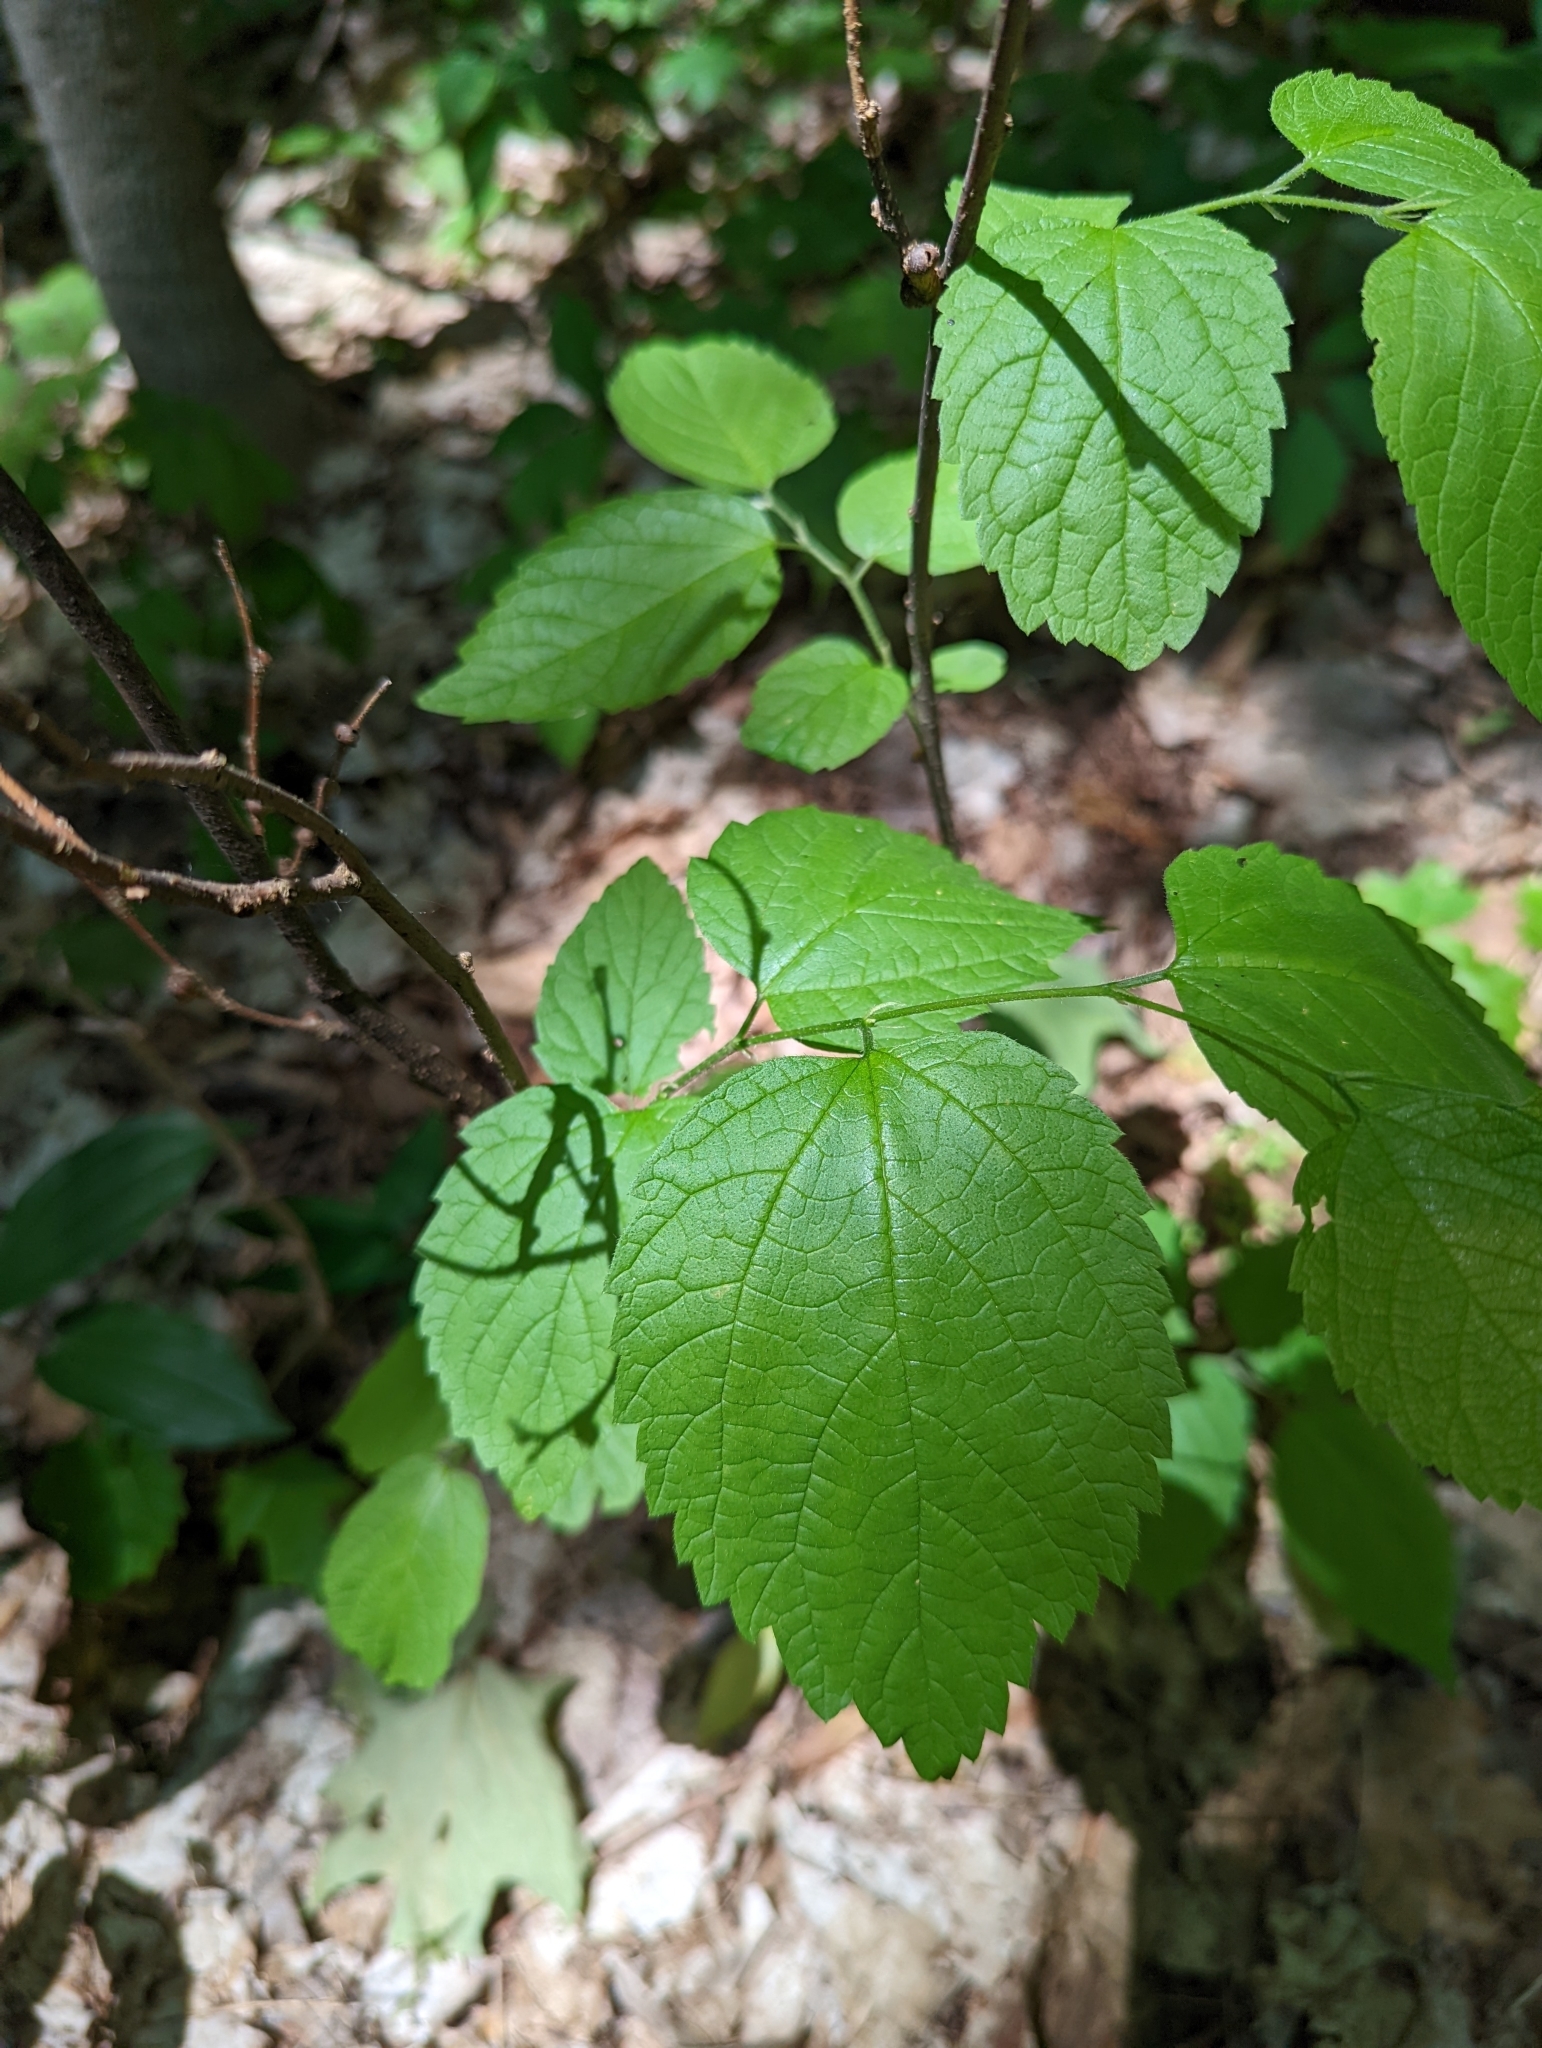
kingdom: Plantae
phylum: Tracheophyta
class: Magnoliopsida
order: Rosales
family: Cannabaceae
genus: Celtis
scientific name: Celtis occidentalis
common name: Common hackberry
